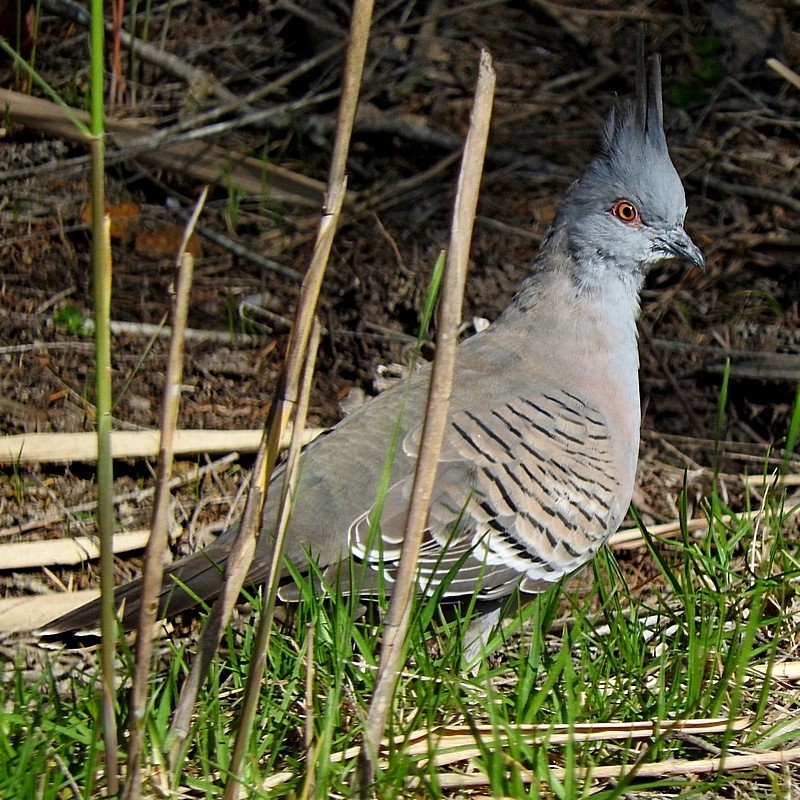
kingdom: Animalia
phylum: Chordata
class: Aves
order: Columbiformes
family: Columbidae
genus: Ocyphaps
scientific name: Ocyphaps lophotes
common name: Crested pigeon
